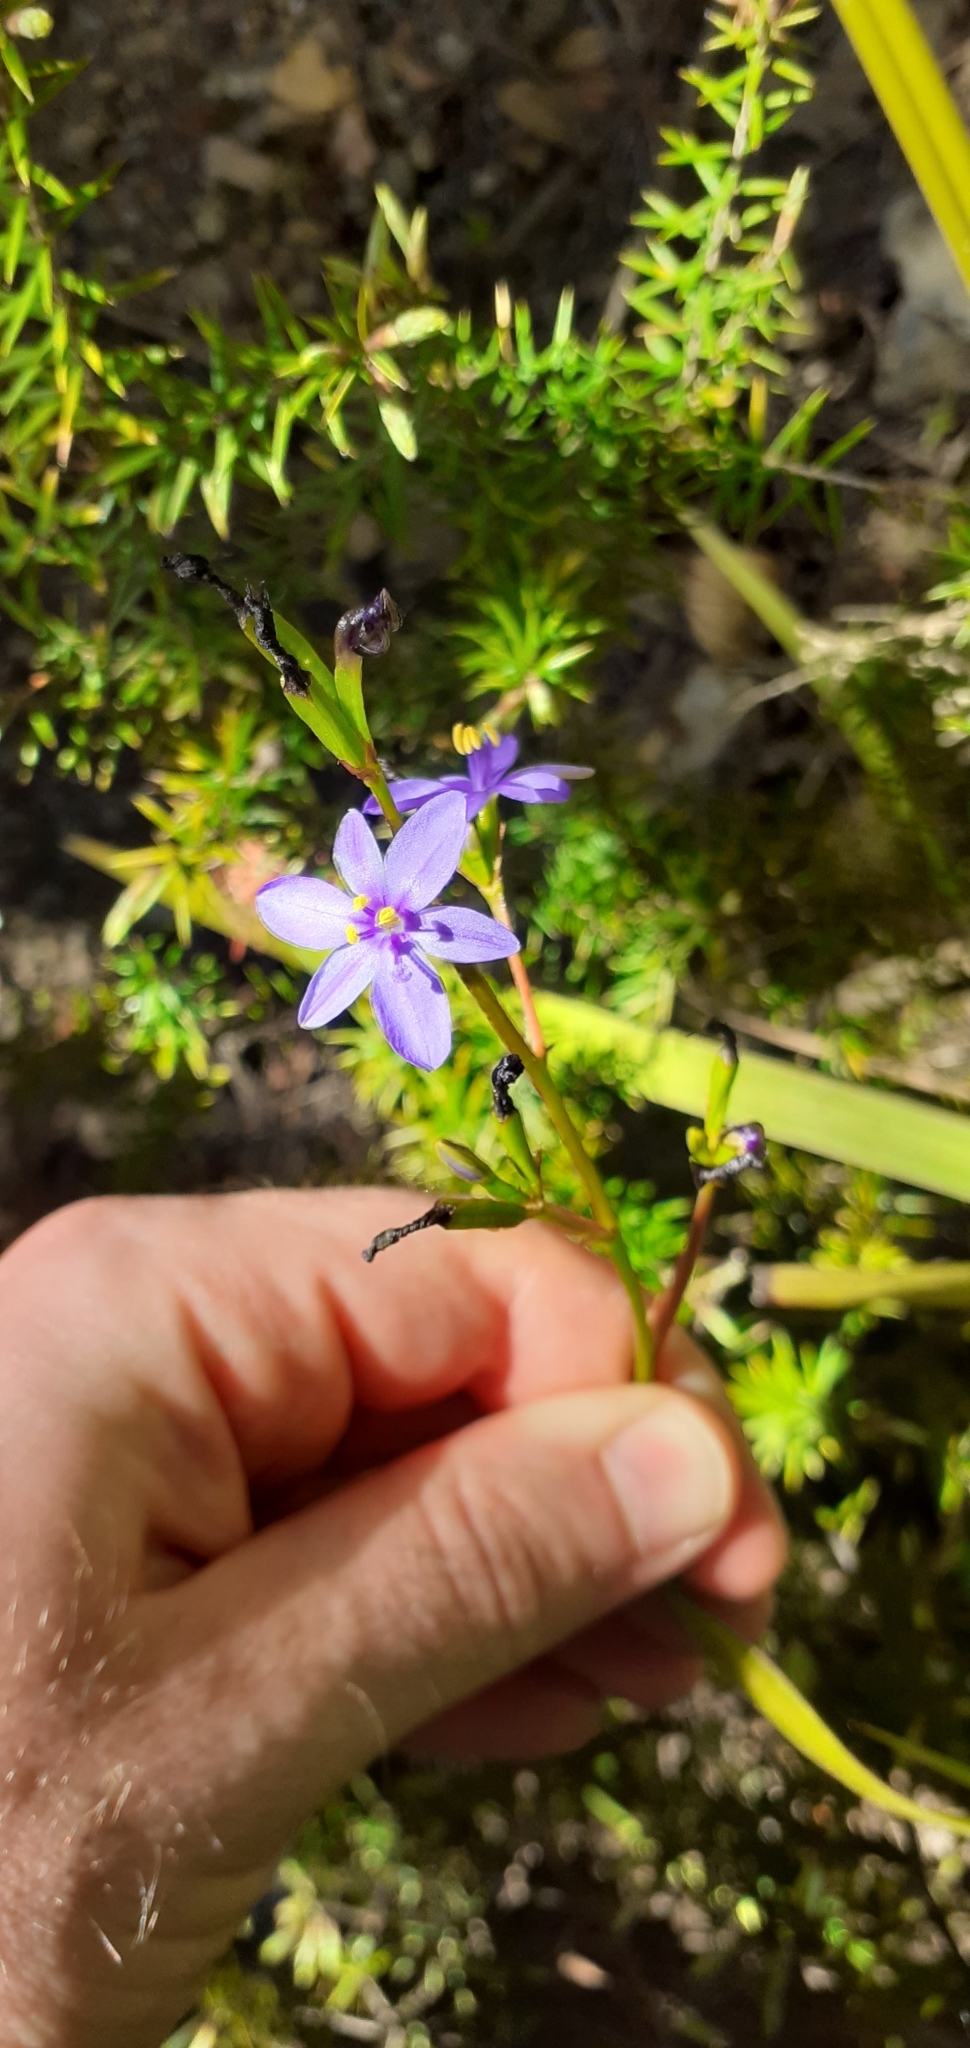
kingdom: Plantae
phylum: Tracheophyta
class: Liliopsida
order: Asparagales
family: Iridaceae
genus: Aristea
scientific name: Aristea ecklonii
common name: Blue corn-lily
